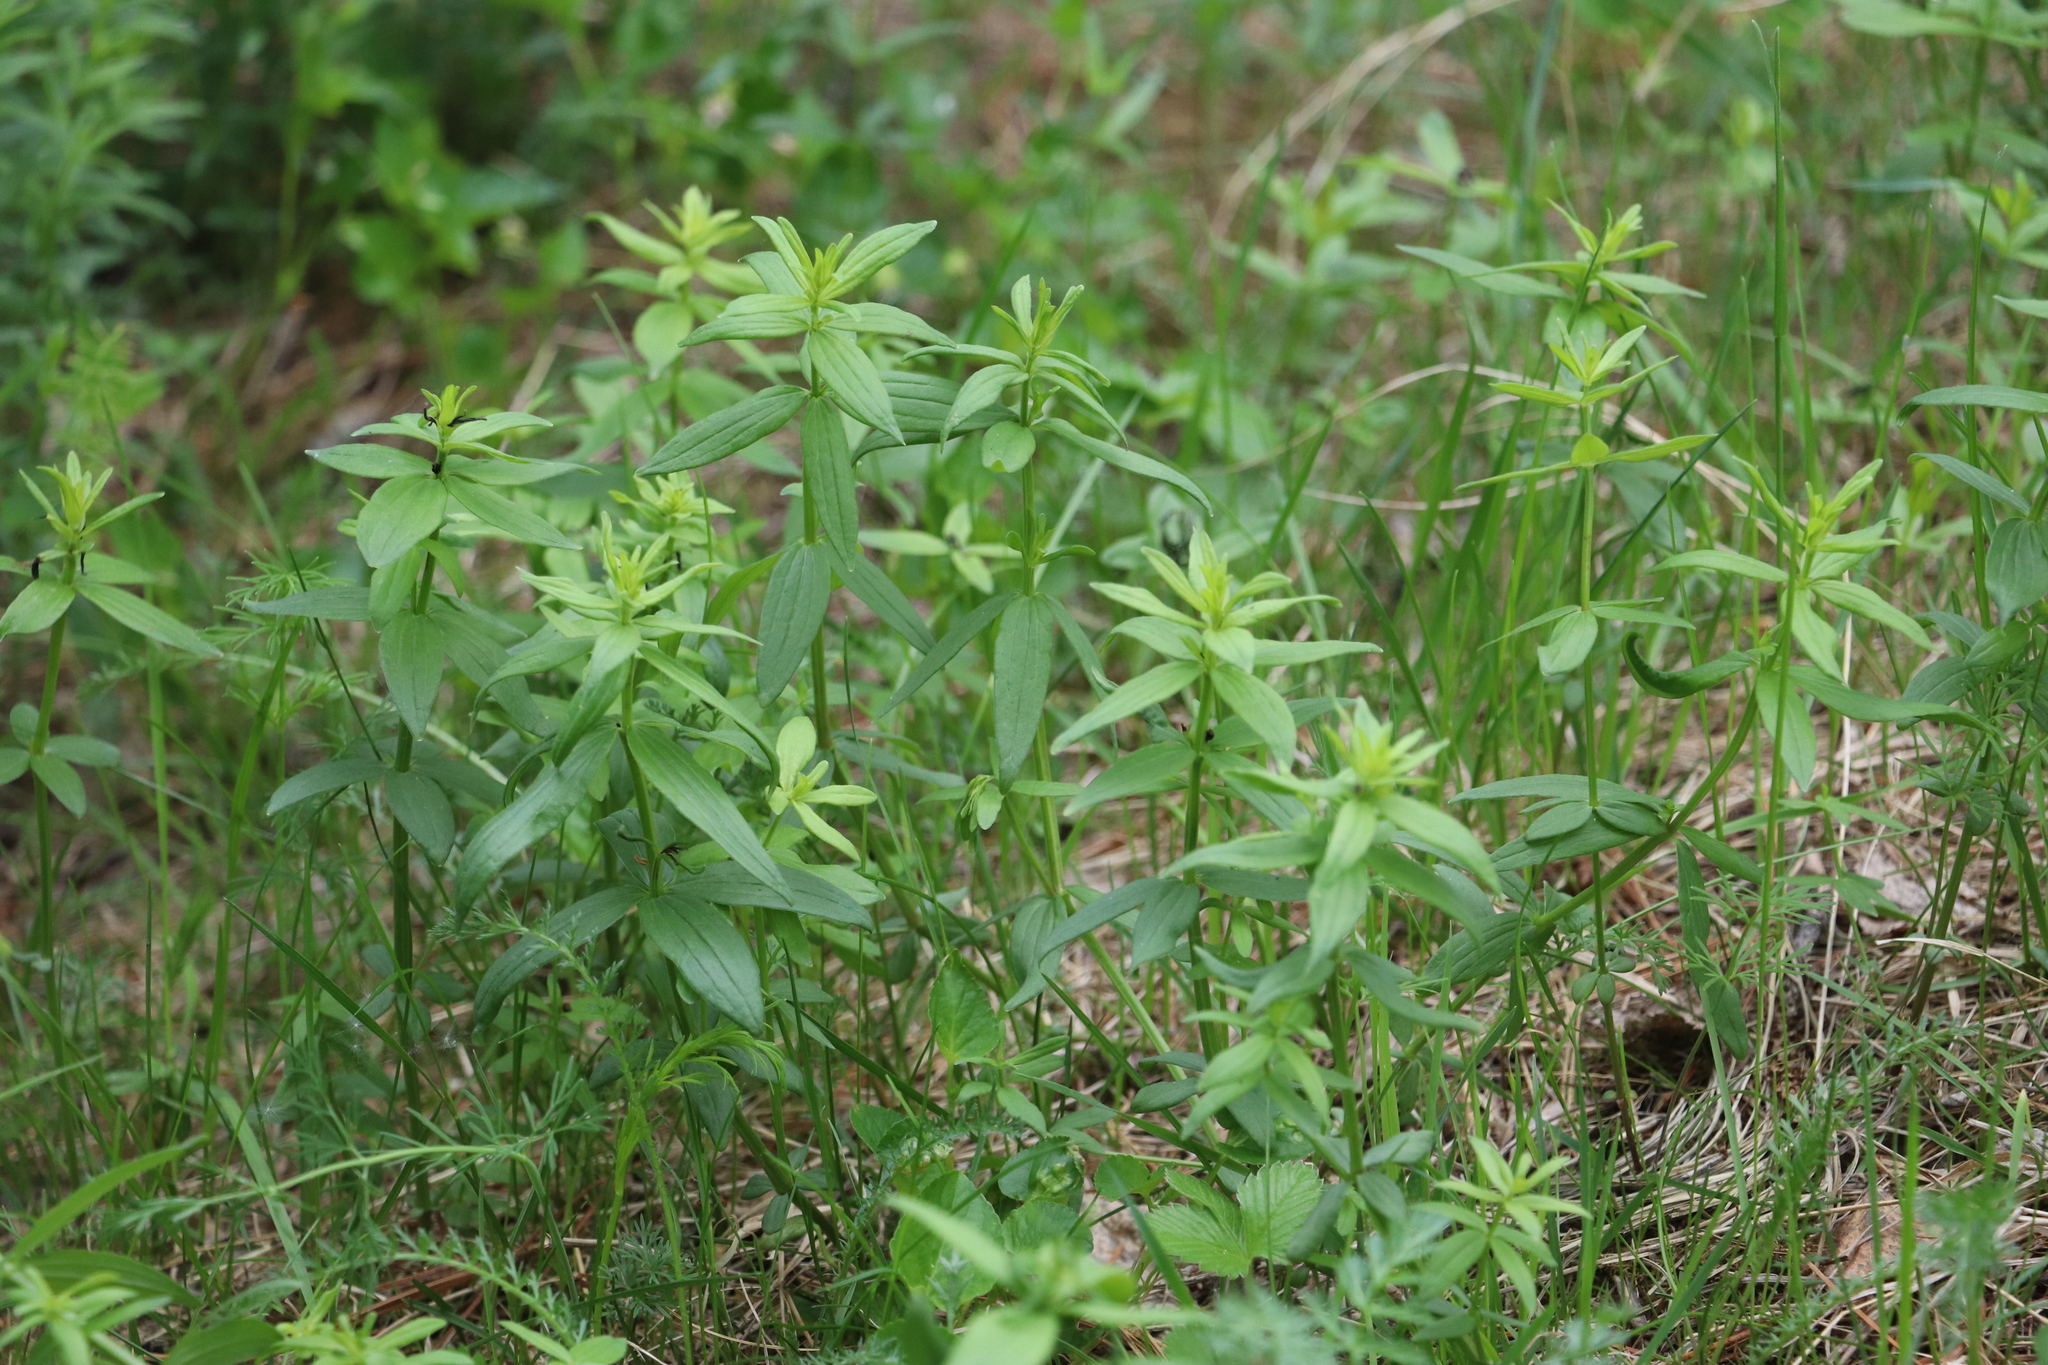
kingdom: Plantae
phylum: Tracheophyta
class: Magnoliopsida
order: Gentianales
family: Rubiaceae
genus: Galium
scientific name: Galium boreale
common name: Northern bedstraw
